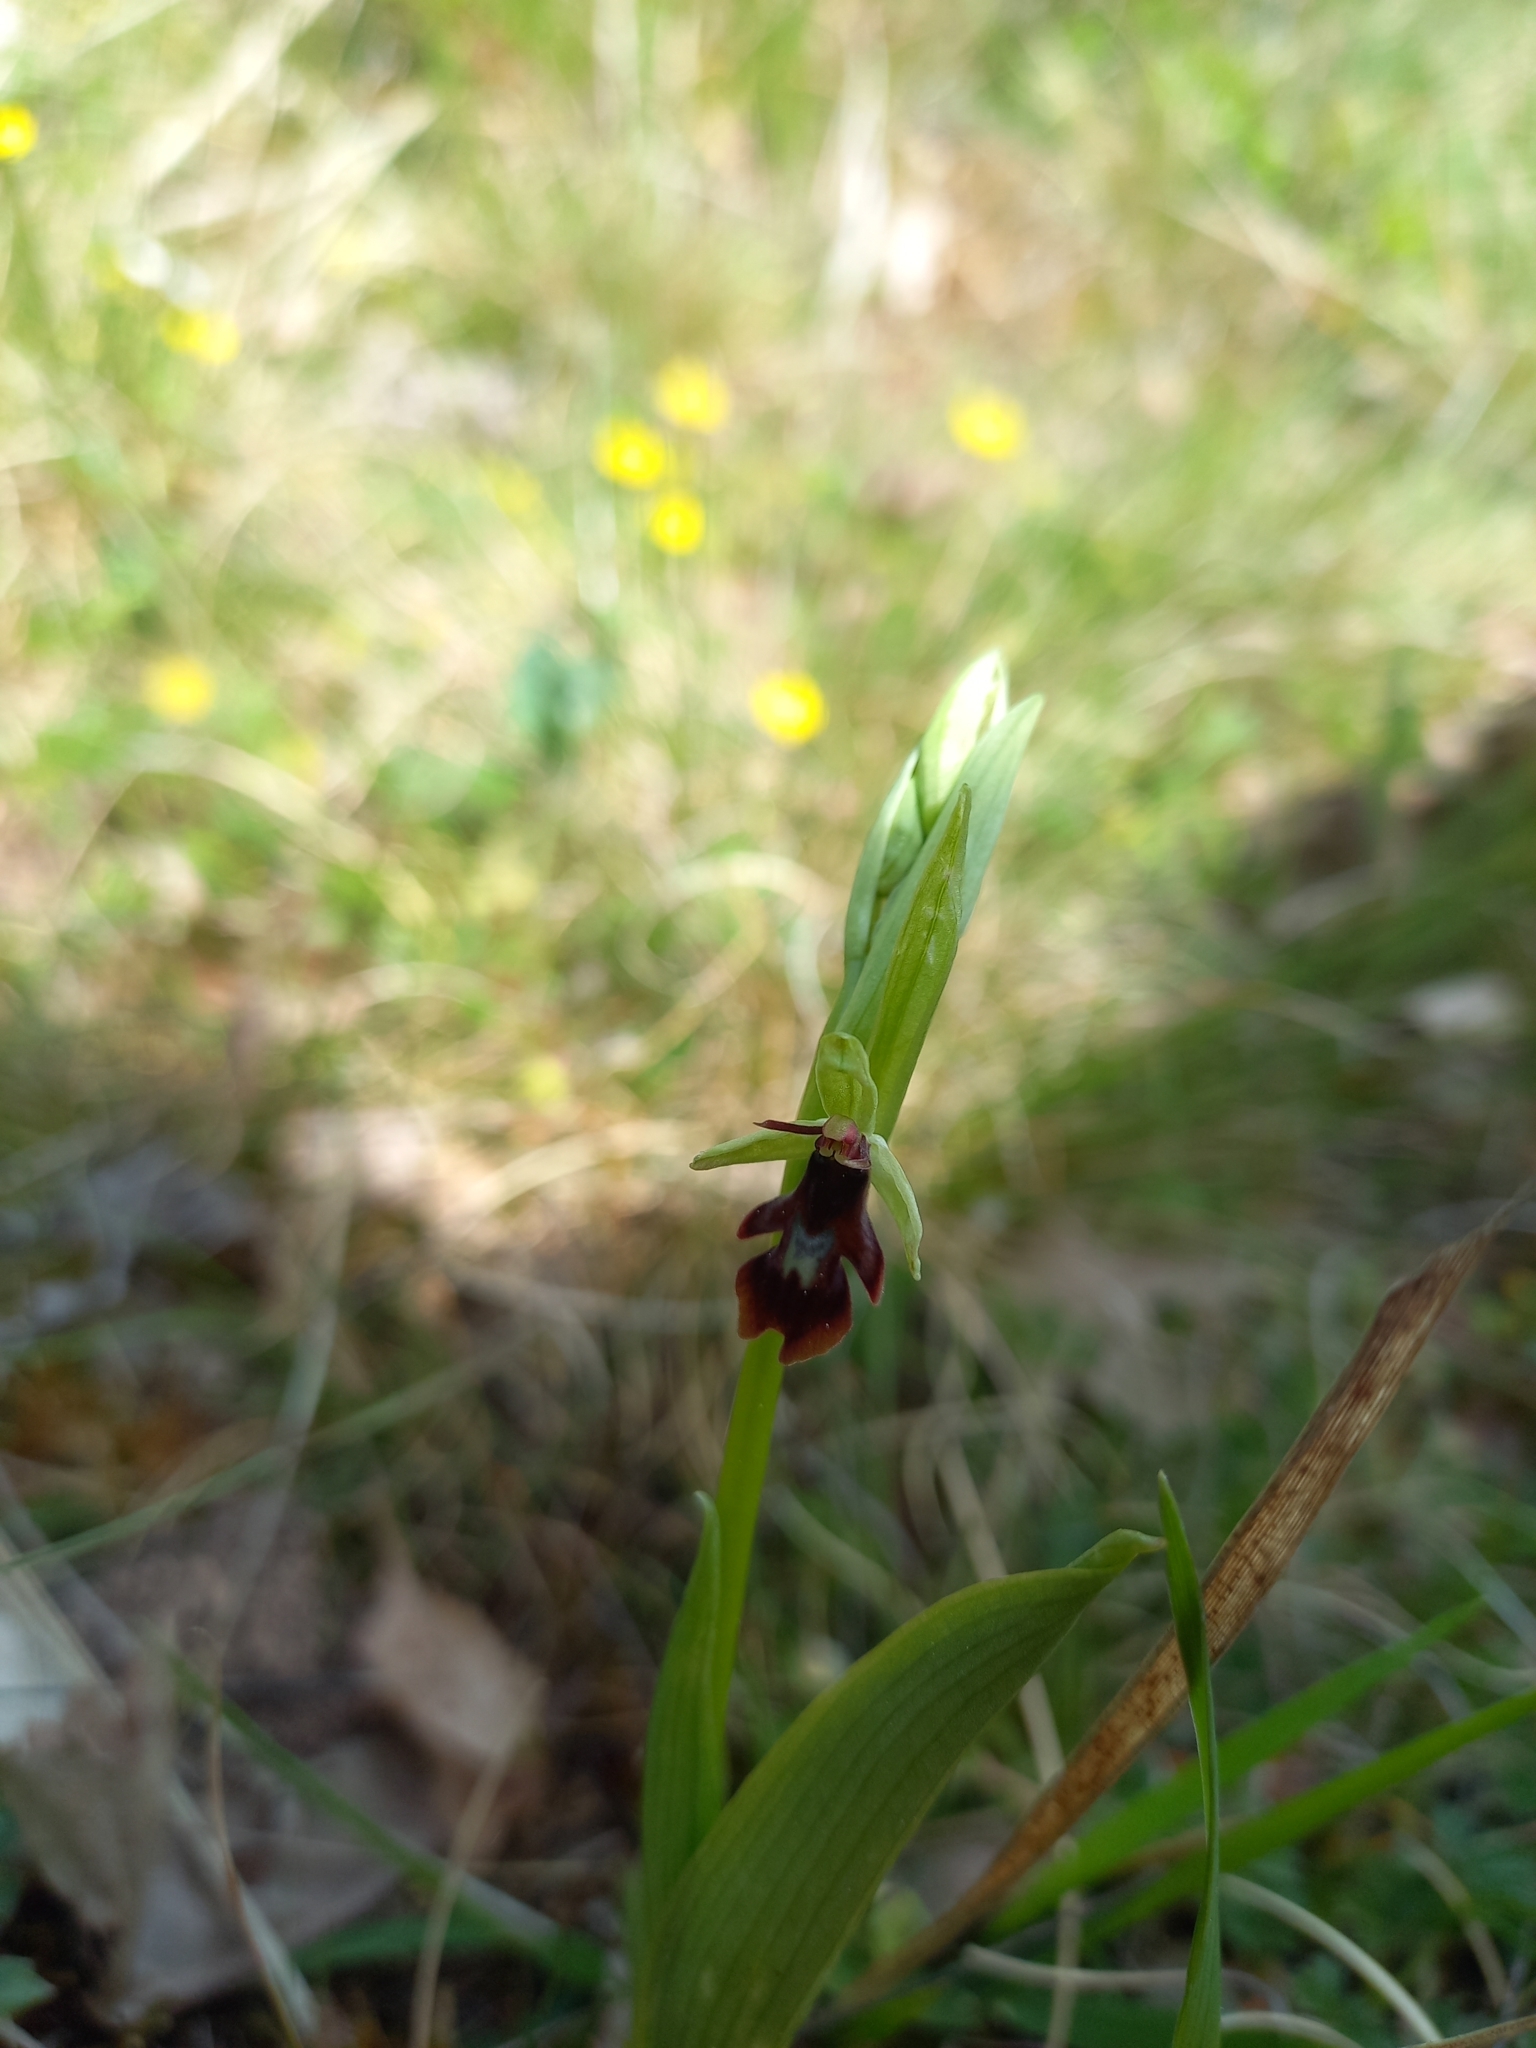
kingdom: Plantae
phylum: Tracheophyta
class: Liliopsida
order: Asparagales
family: Orchidaceae
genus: Ophrys
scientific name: Ophrys insectifera
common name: Fly orchid
